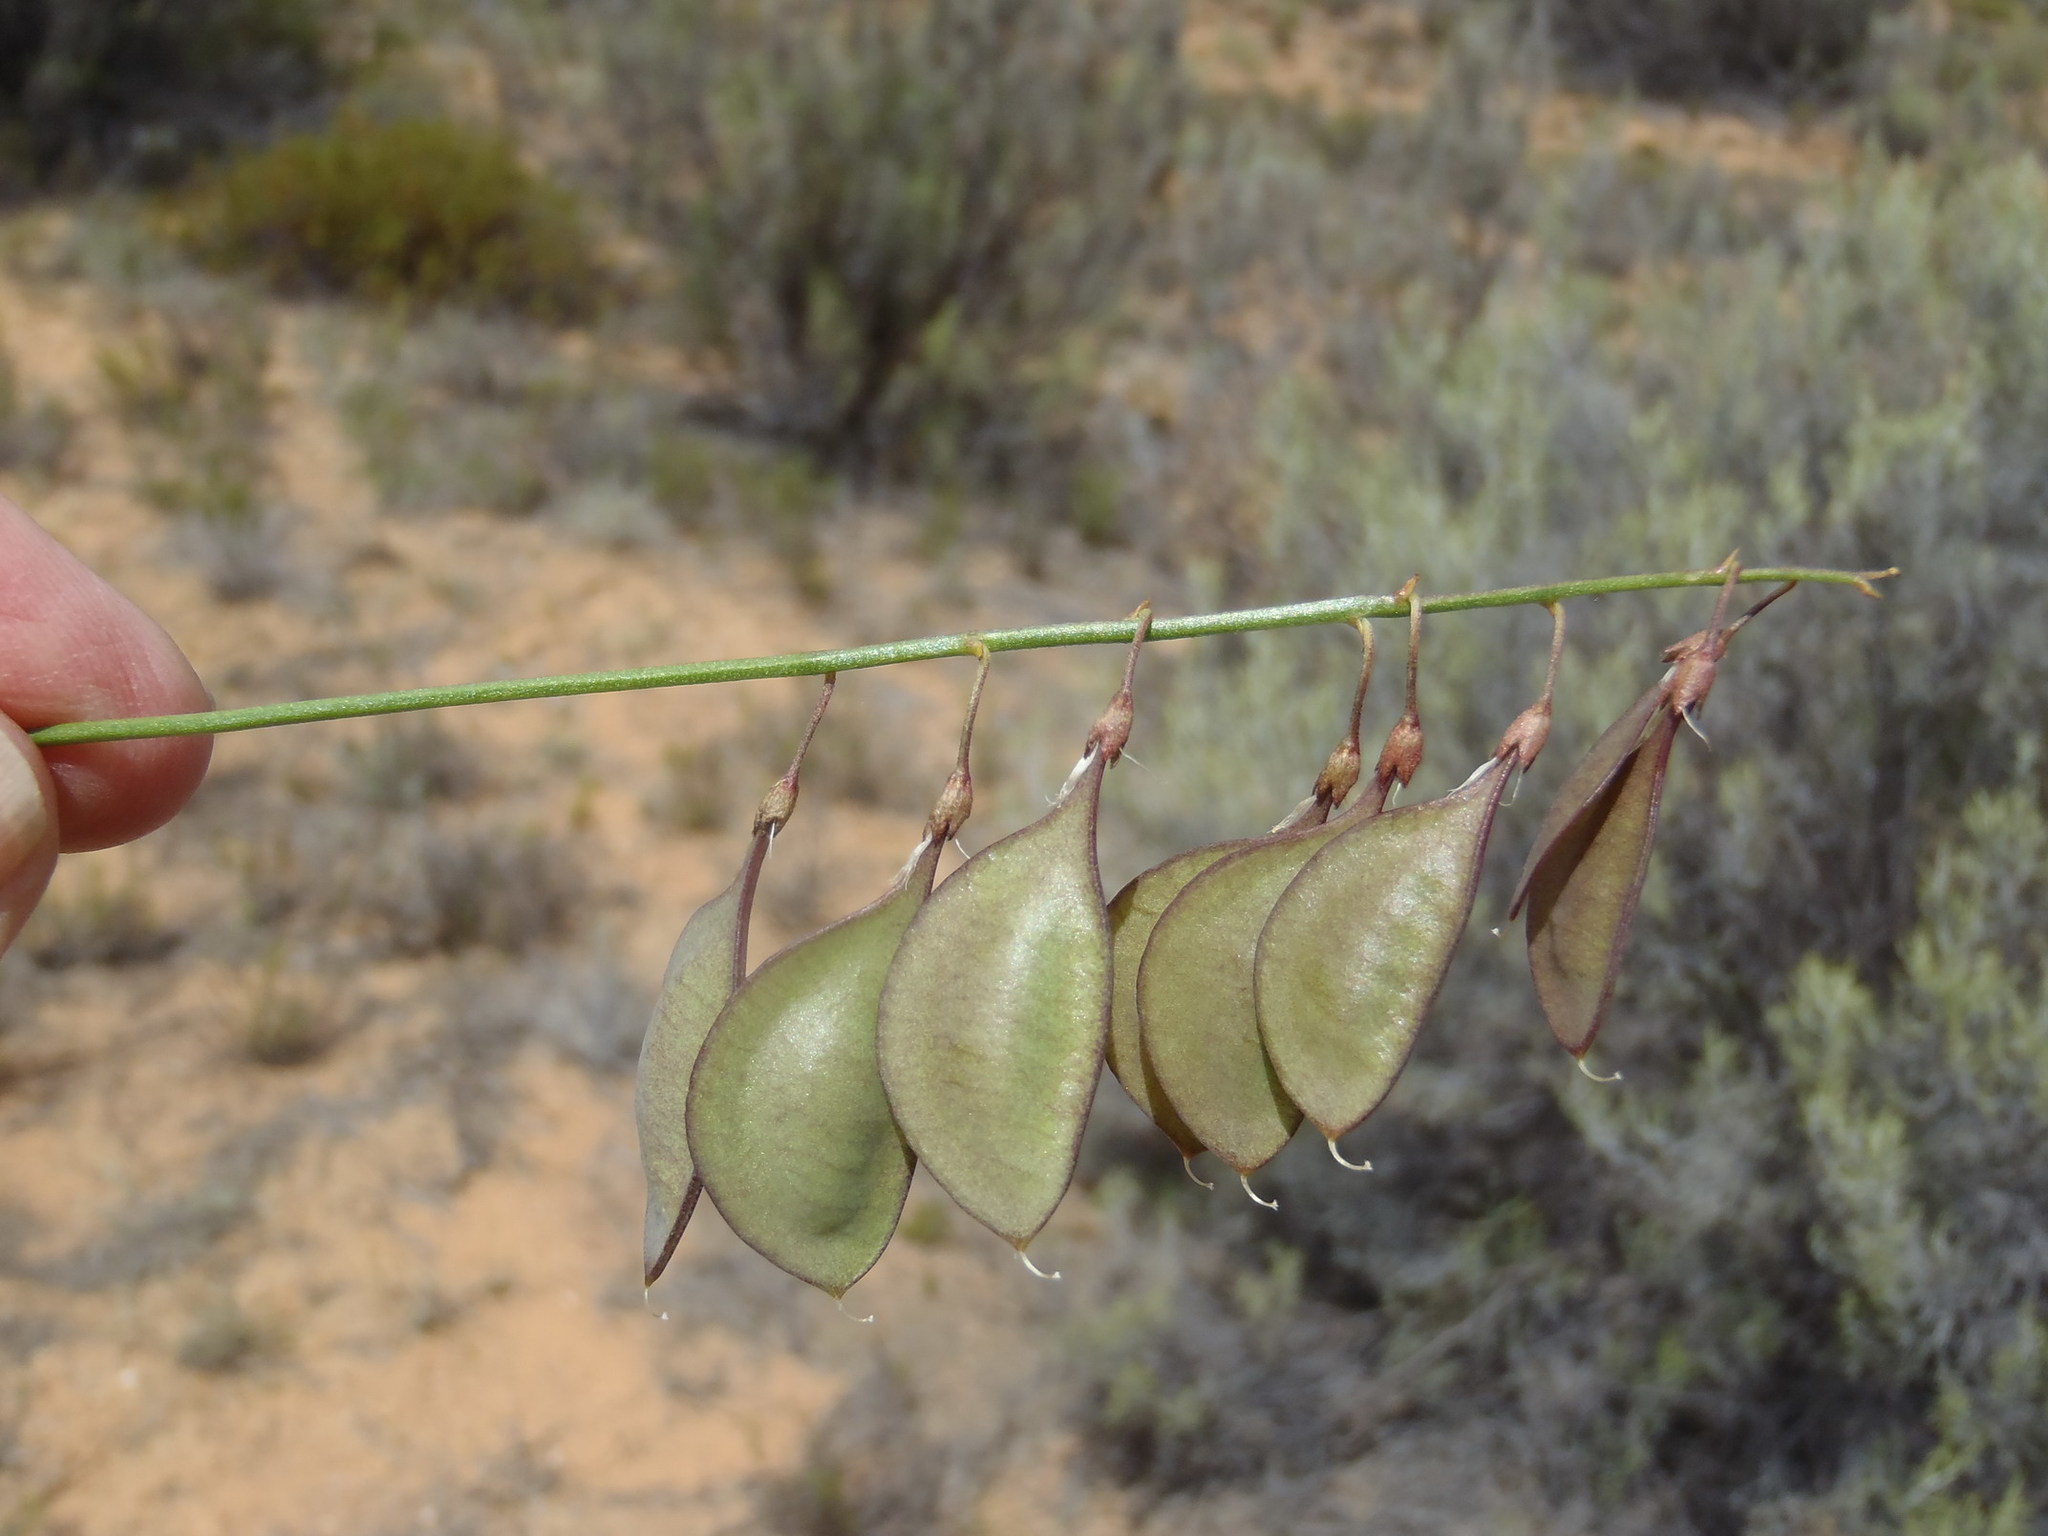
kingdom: Plantae
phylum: Tracheophyta
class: Magnoliopsida
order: Fabales
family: Fabaceae
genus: Lessertia
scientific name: Lessertia diffusa
